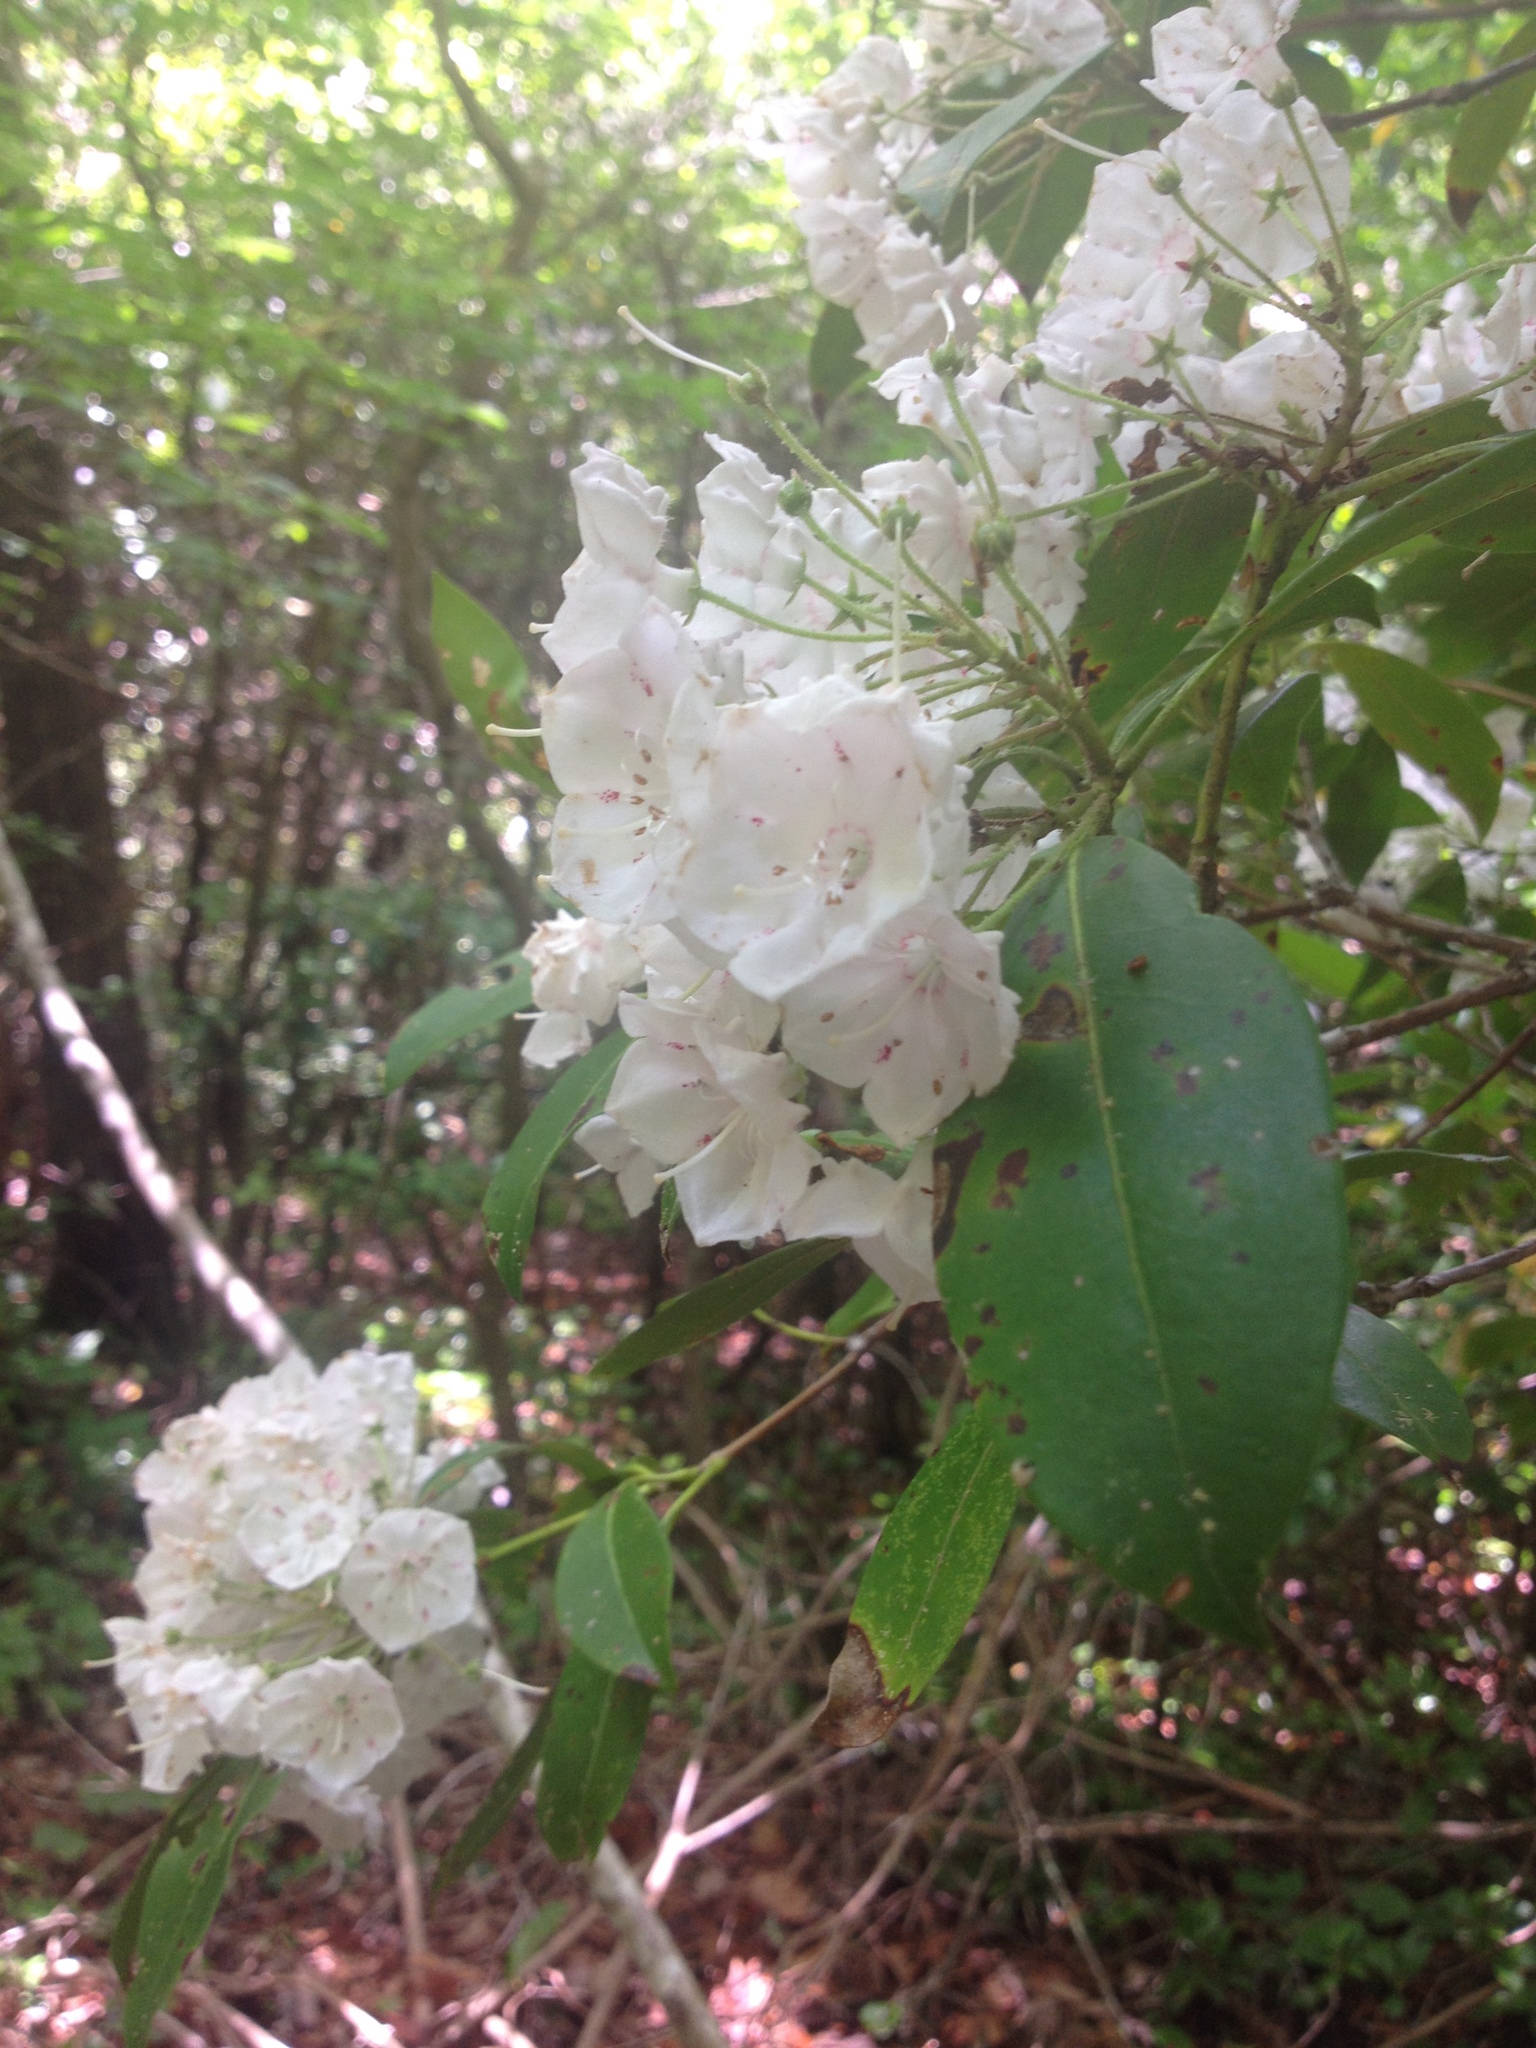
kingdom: Plantae
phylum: Tracheophyta
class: Magnoliopsida
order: Ericales
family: Ericaceae
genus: Kalmia
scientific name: Kalmia latifolia
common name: Mountain-laurel
